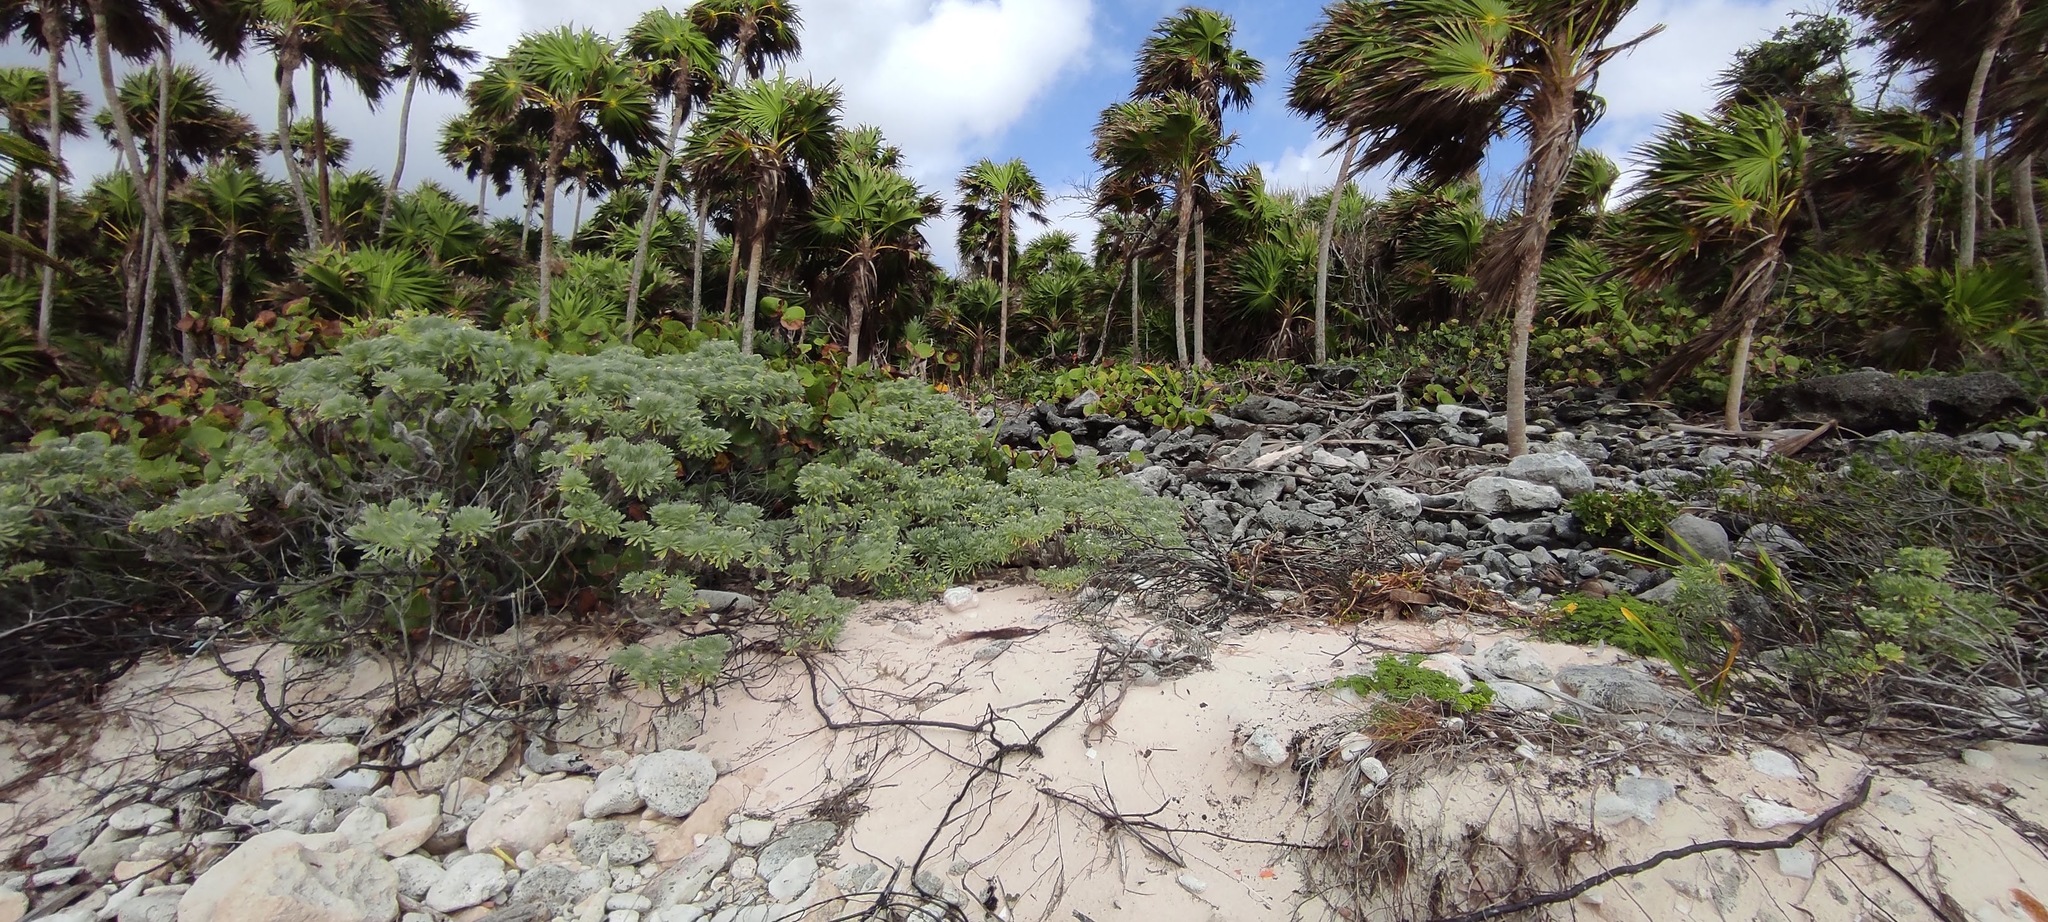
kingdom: Plantae
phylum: Tracheophyta
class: Magnoliopsida
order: Boraginales
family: Heliotropiaceae
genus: Tournefortia
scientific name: Tournefortia gnaphalodes
